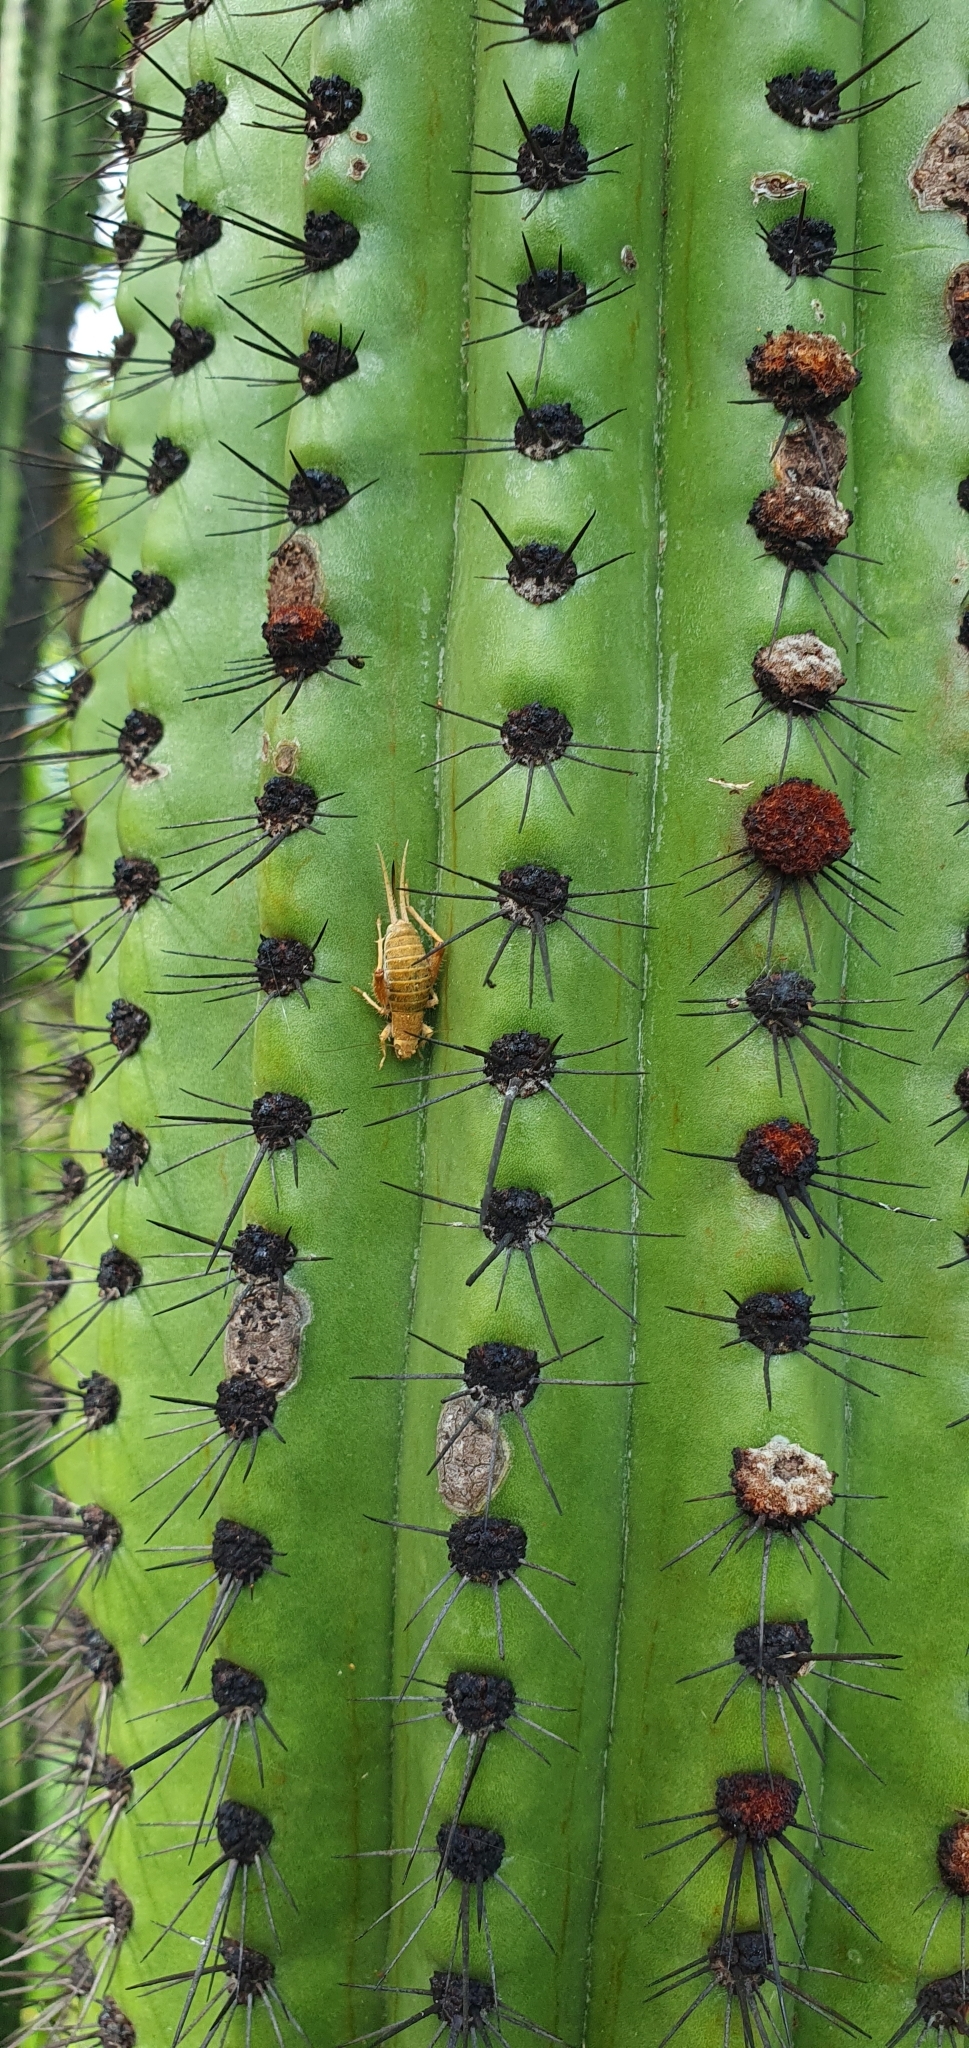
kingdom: Animalia
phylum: Arthropoda
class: Insecta
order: Orthoptera
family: Mogoplistidae
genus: Ectatoderus
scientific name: Ectatoderus hesperus
